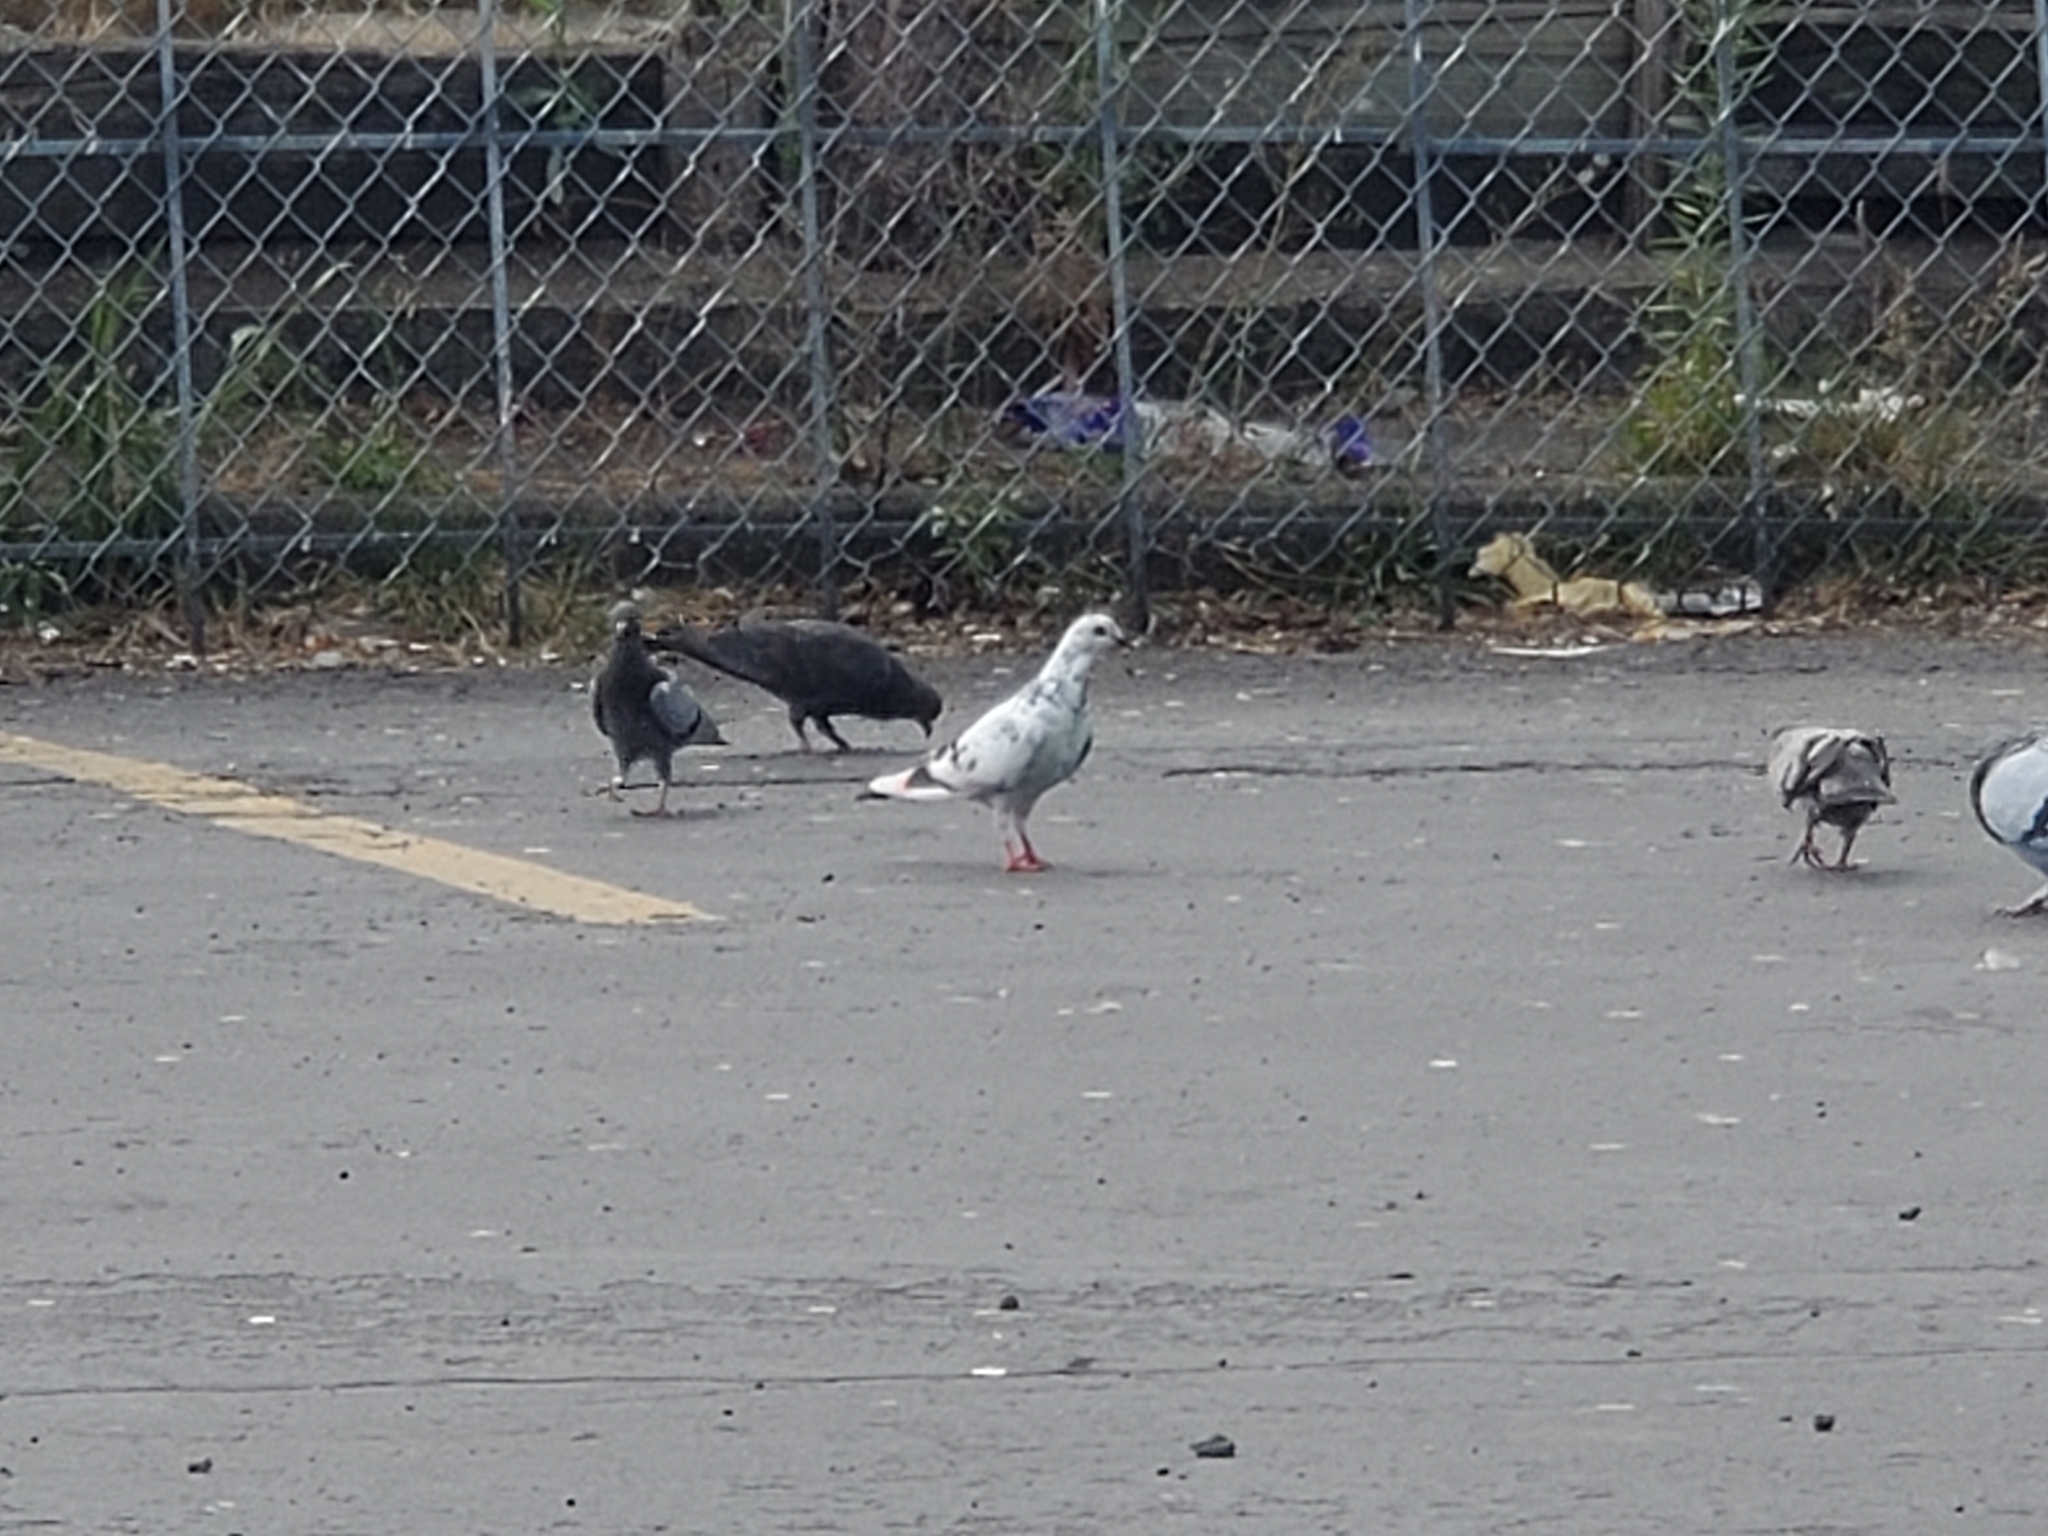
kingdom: Animalia
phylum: Chordata
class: Aves
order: Columbiformes
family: Columbidae
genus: Columba
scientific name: Columba livia
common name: Rock pigeon
